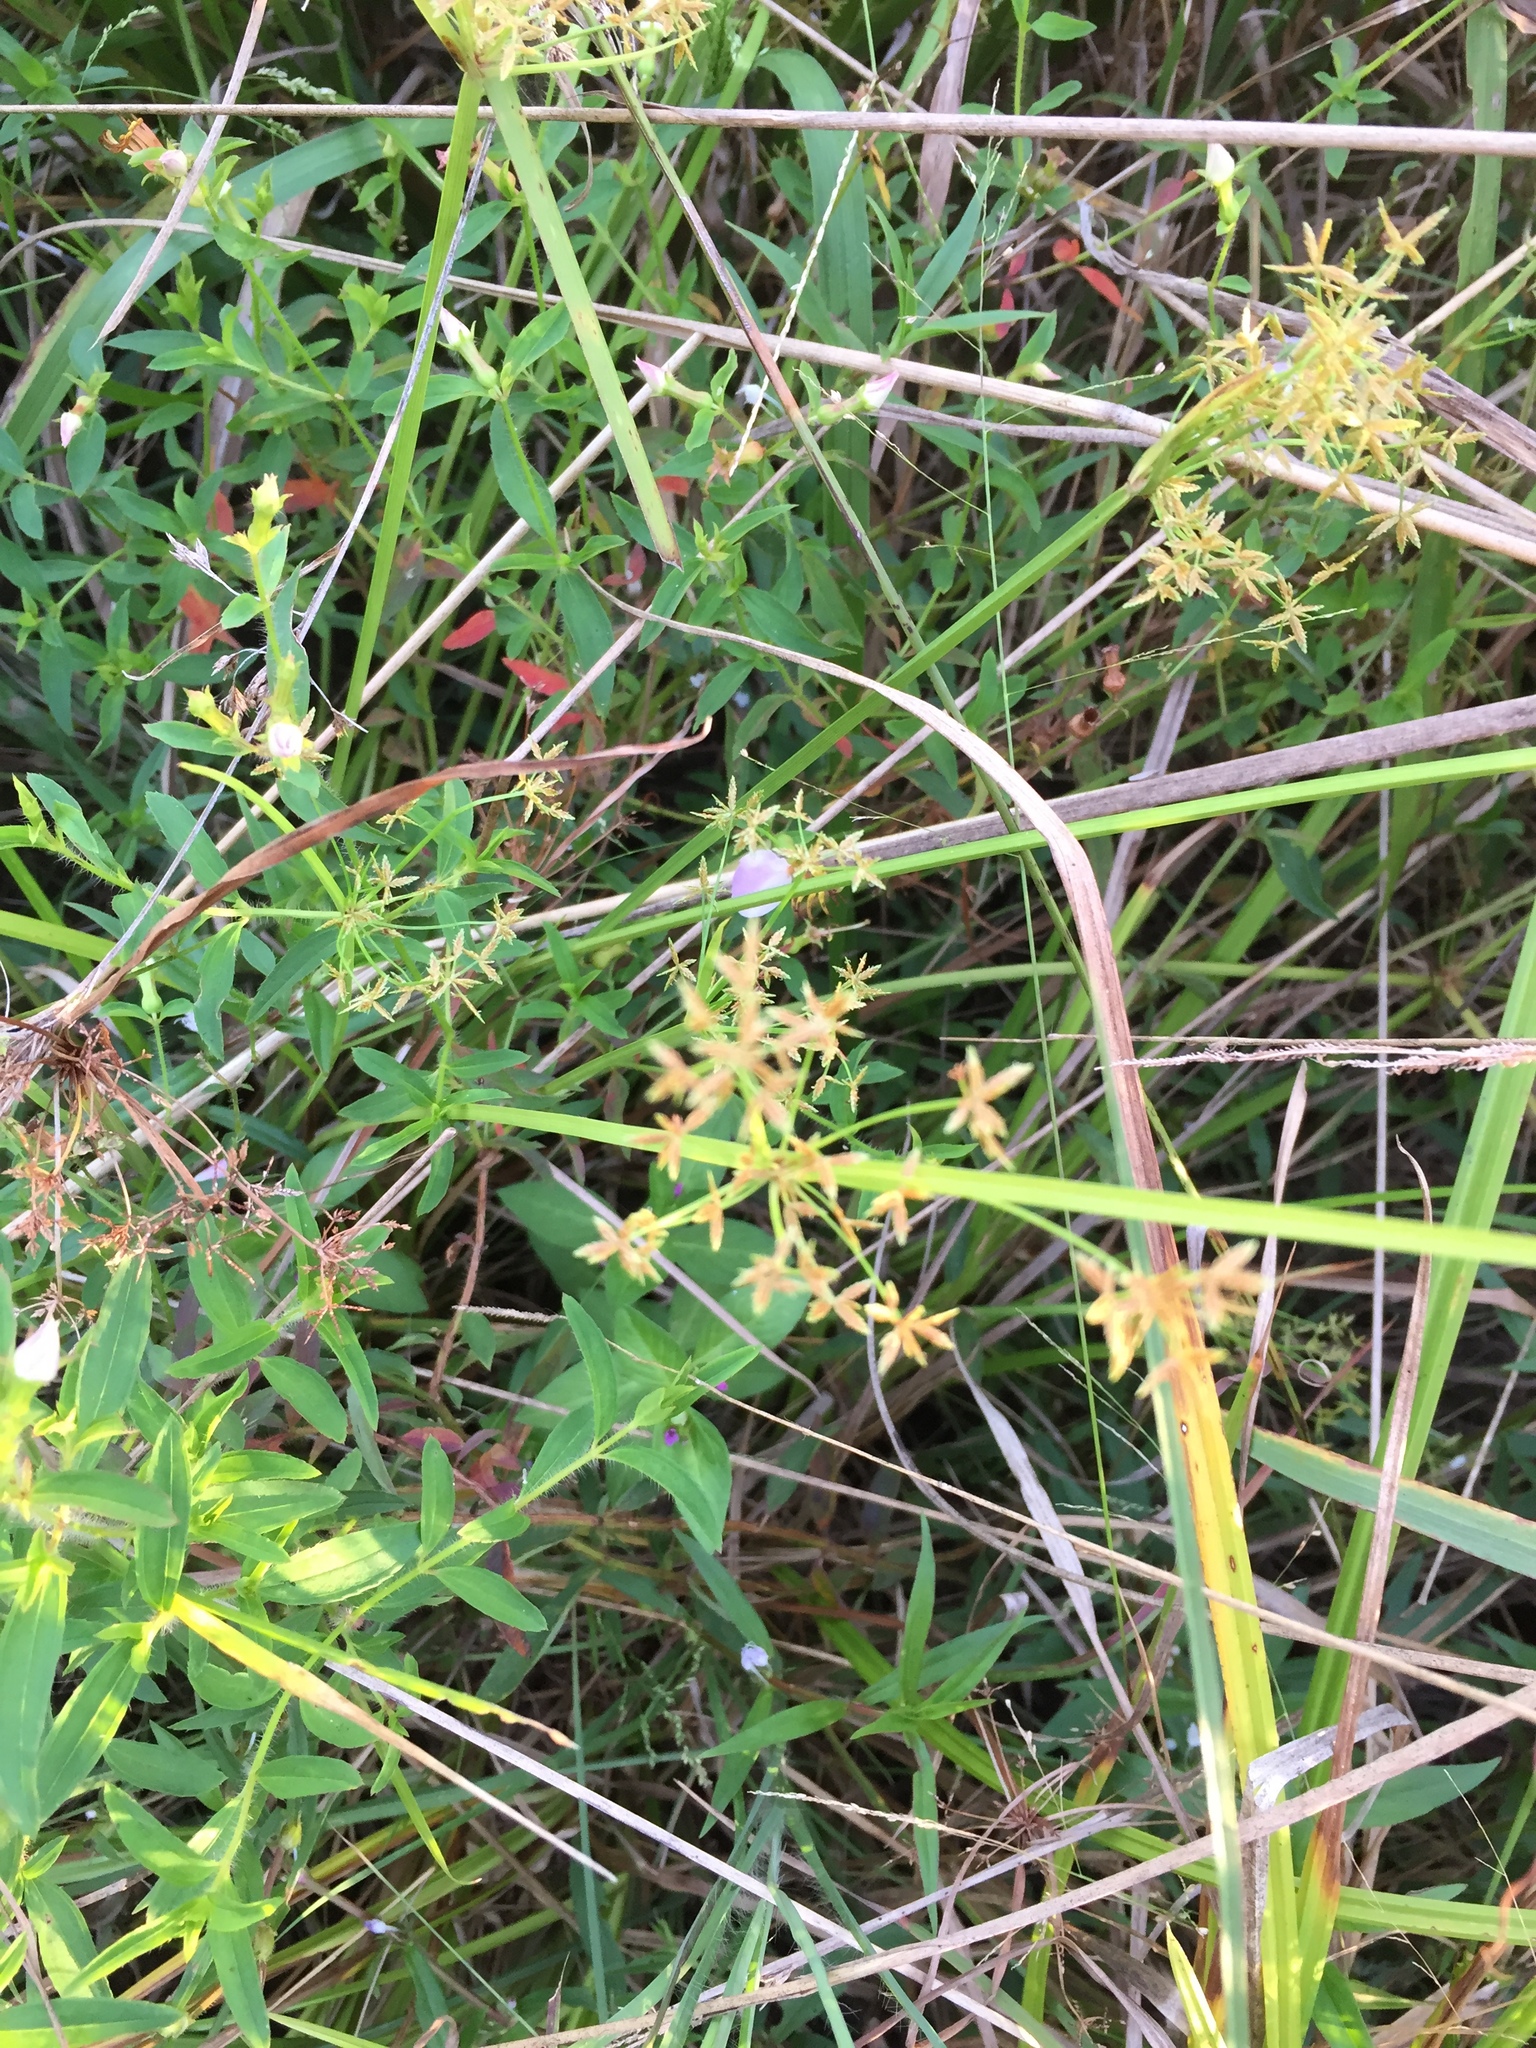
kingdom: Plantae
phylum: Tracheophyta
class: Liliopsida
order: Poales
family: Cyperaceae
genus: Cyperus
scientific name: Cyperus haspan
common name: Haspan flatsedge
